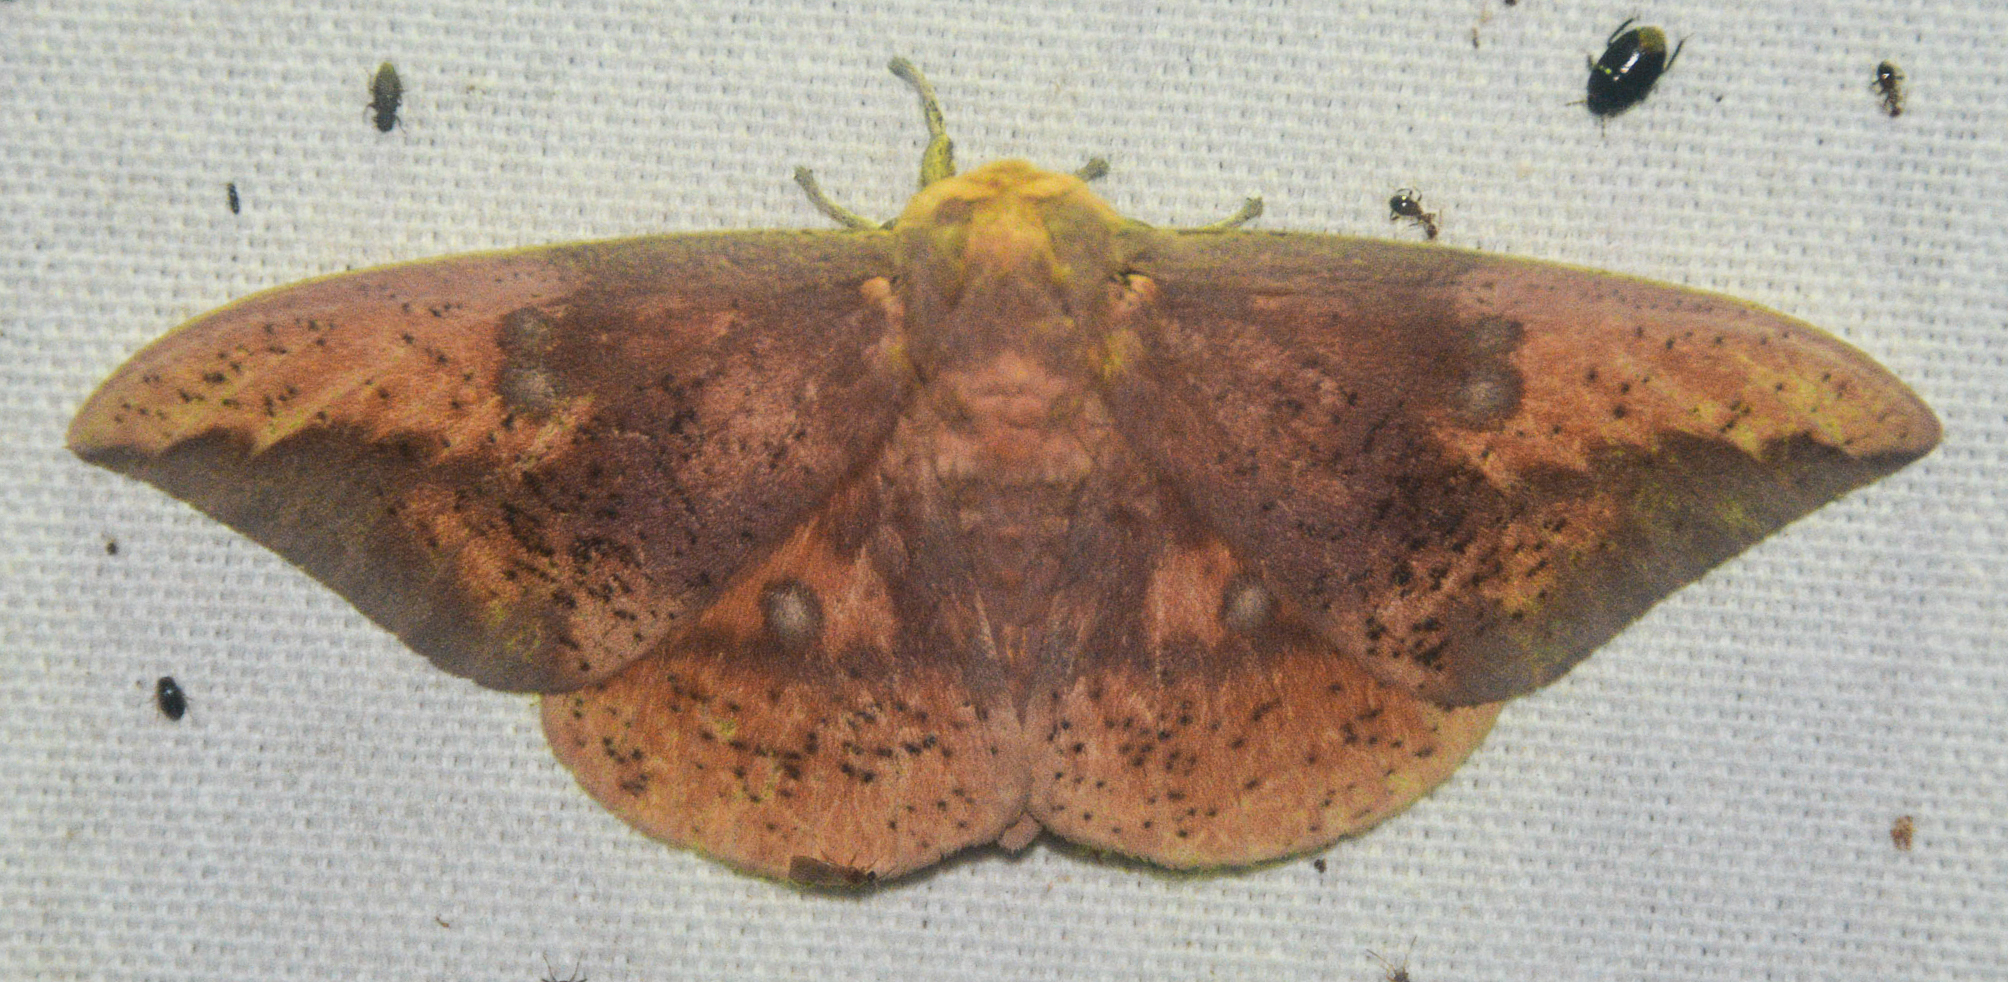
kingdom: Animalia
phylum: Arthropoda
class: Insecta
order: Lepidoptera
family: Saturniidae
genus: Eacles
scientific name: Eacles imperialis
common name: Imperial moth
